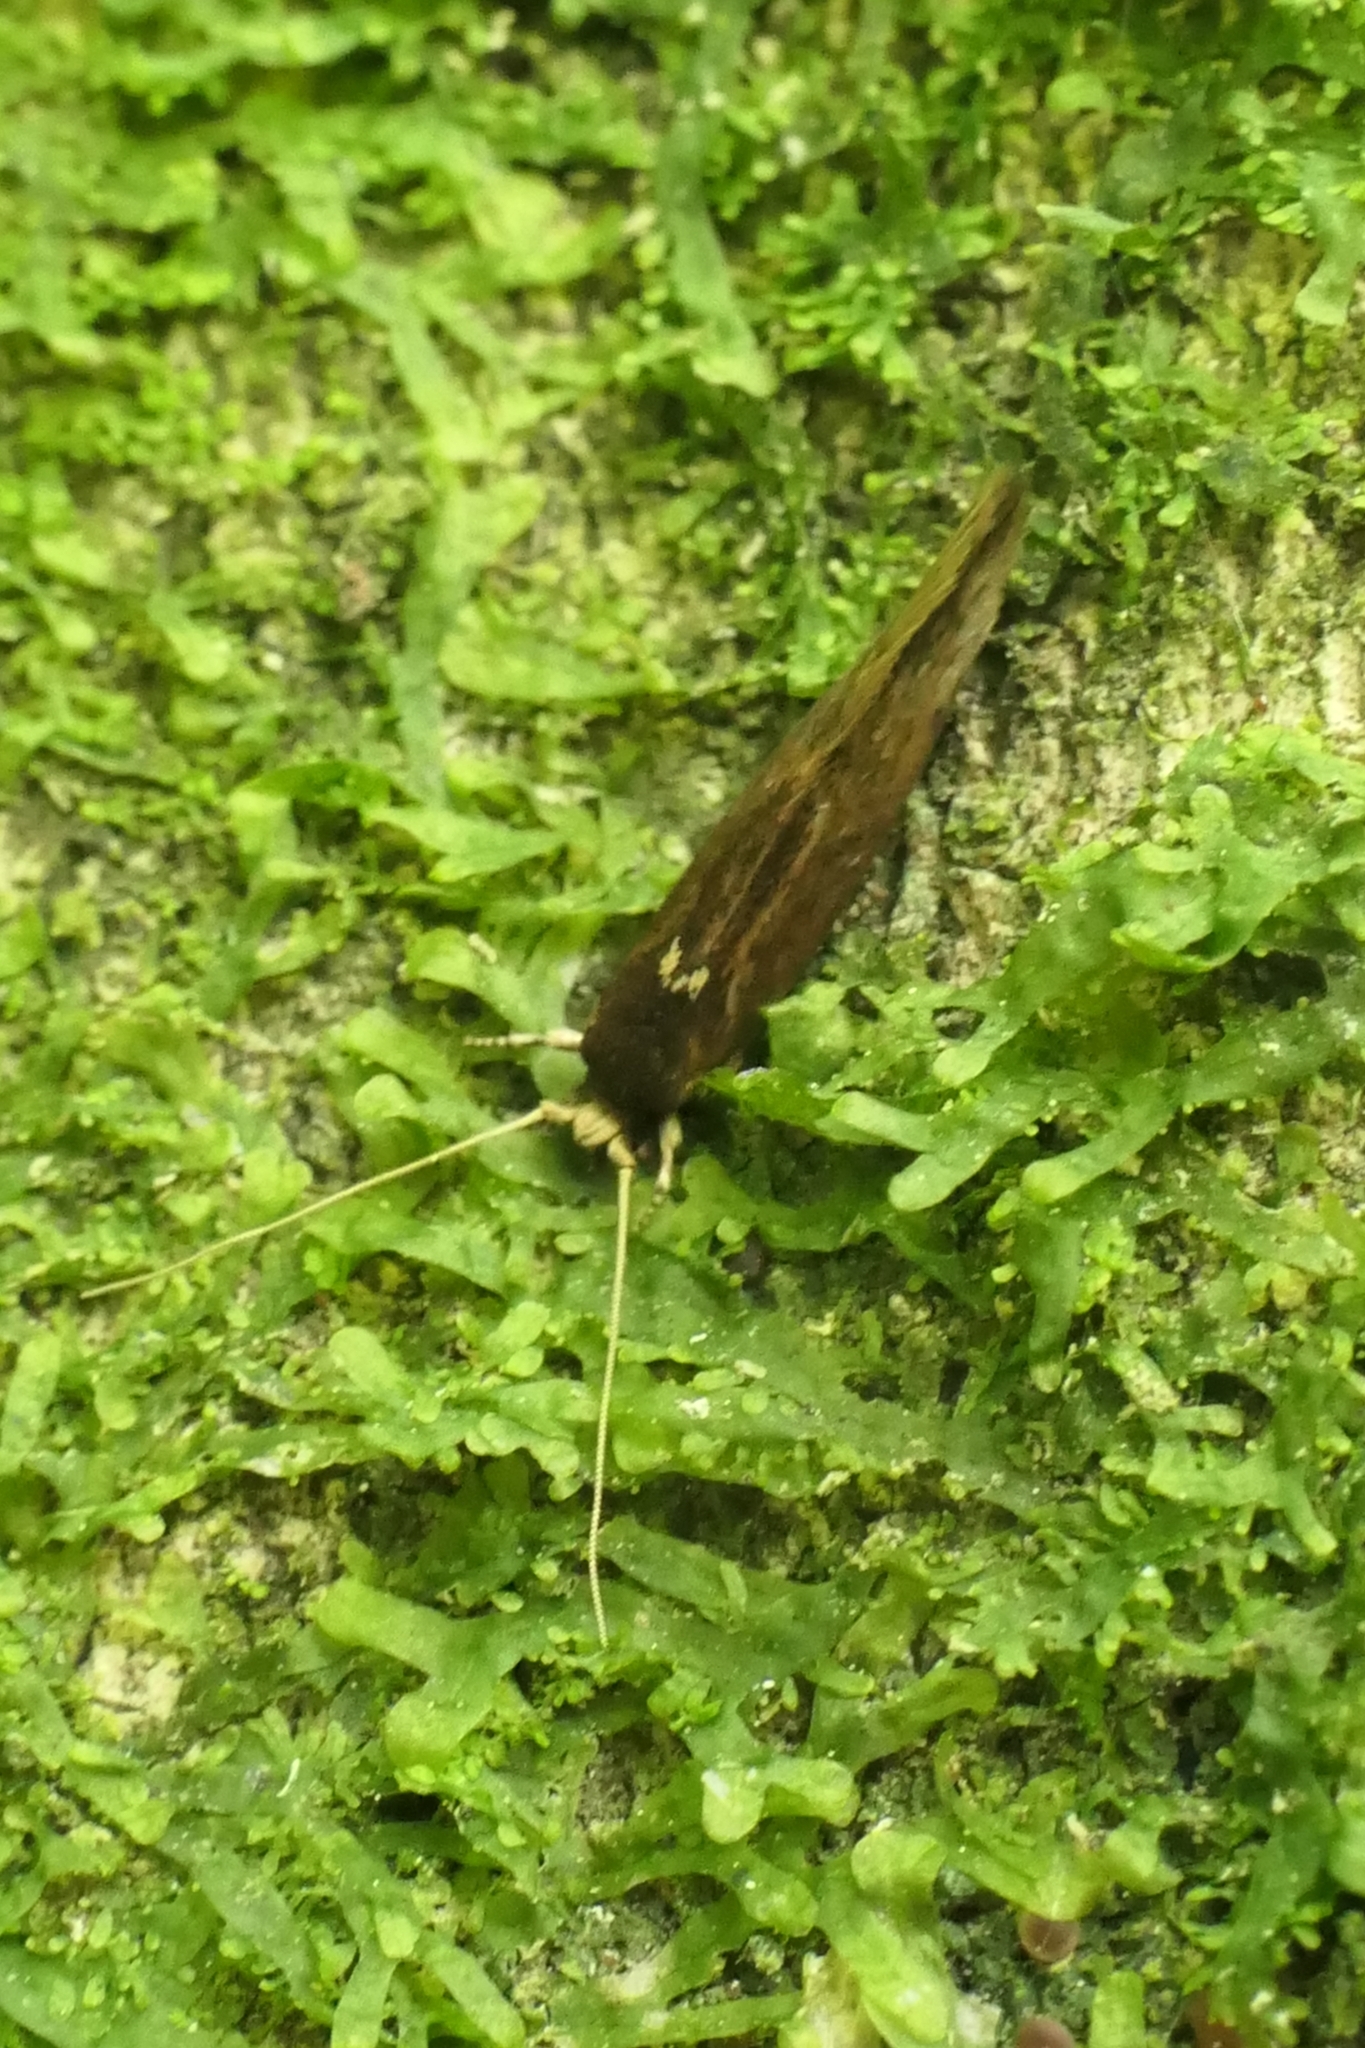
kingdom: Animalia
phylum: Arthropoda
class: Insecta
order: Lepidoptera
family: Tineidae
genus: Opogona
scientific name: Opogona omoscopa
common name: Moth
